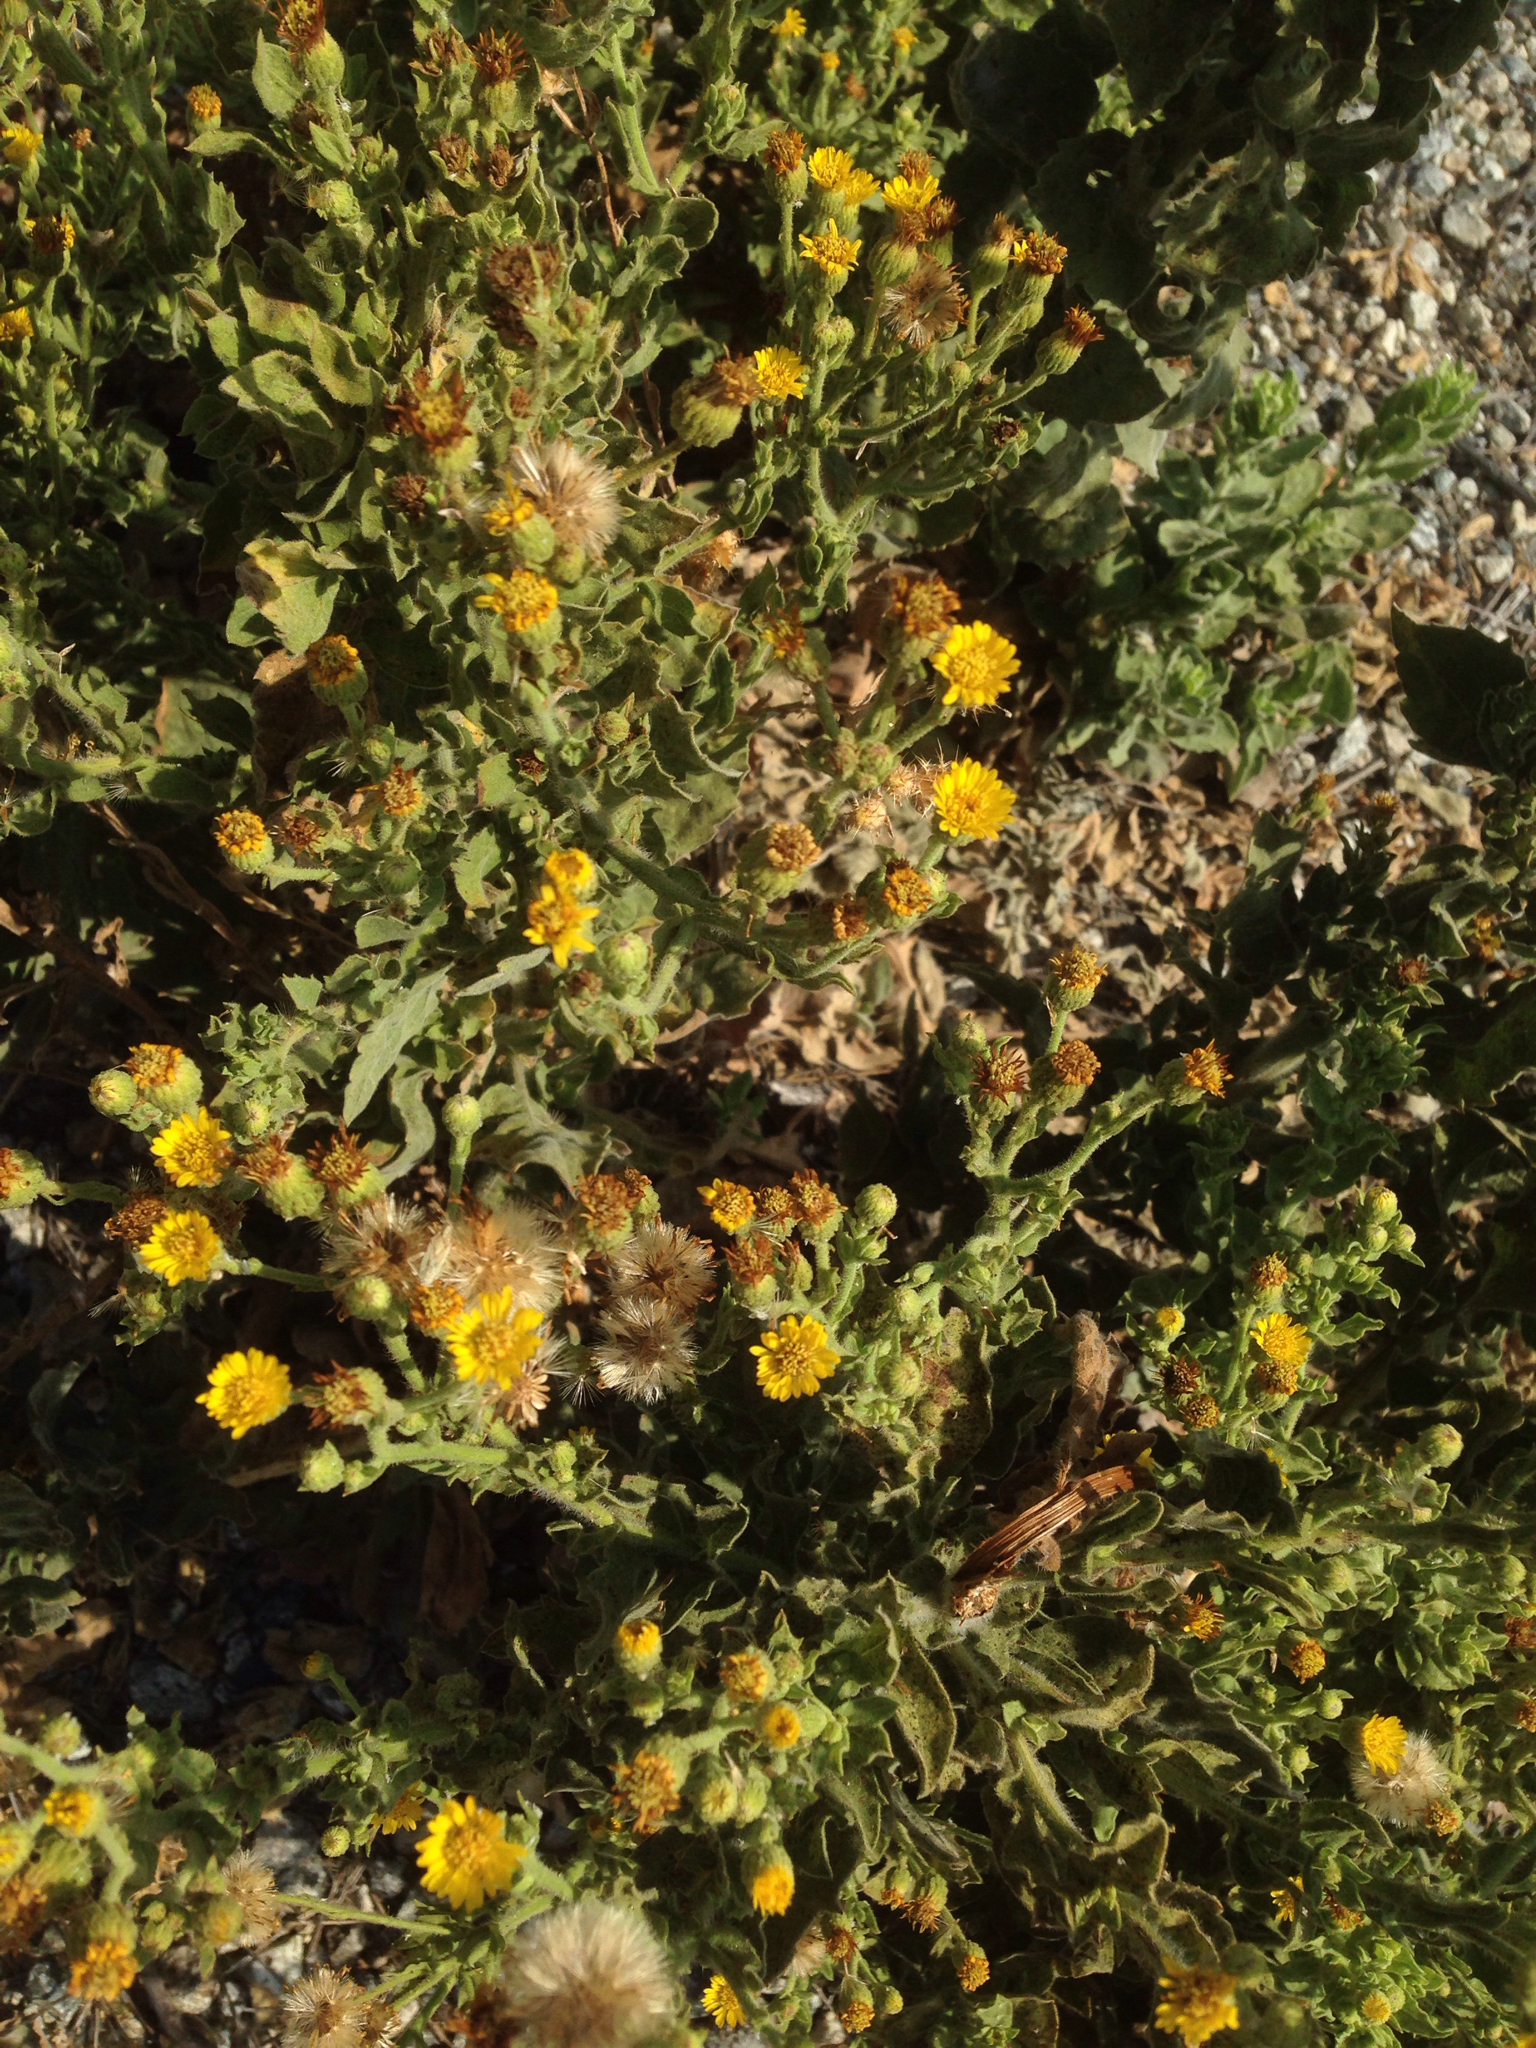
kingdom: Plantae
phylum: Tracheophyta
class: Magnoliopsida
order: Asterales
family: Asteraceae
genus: Heterotheca
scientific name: Heterotheca grandiflora
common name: Telegraphweed
